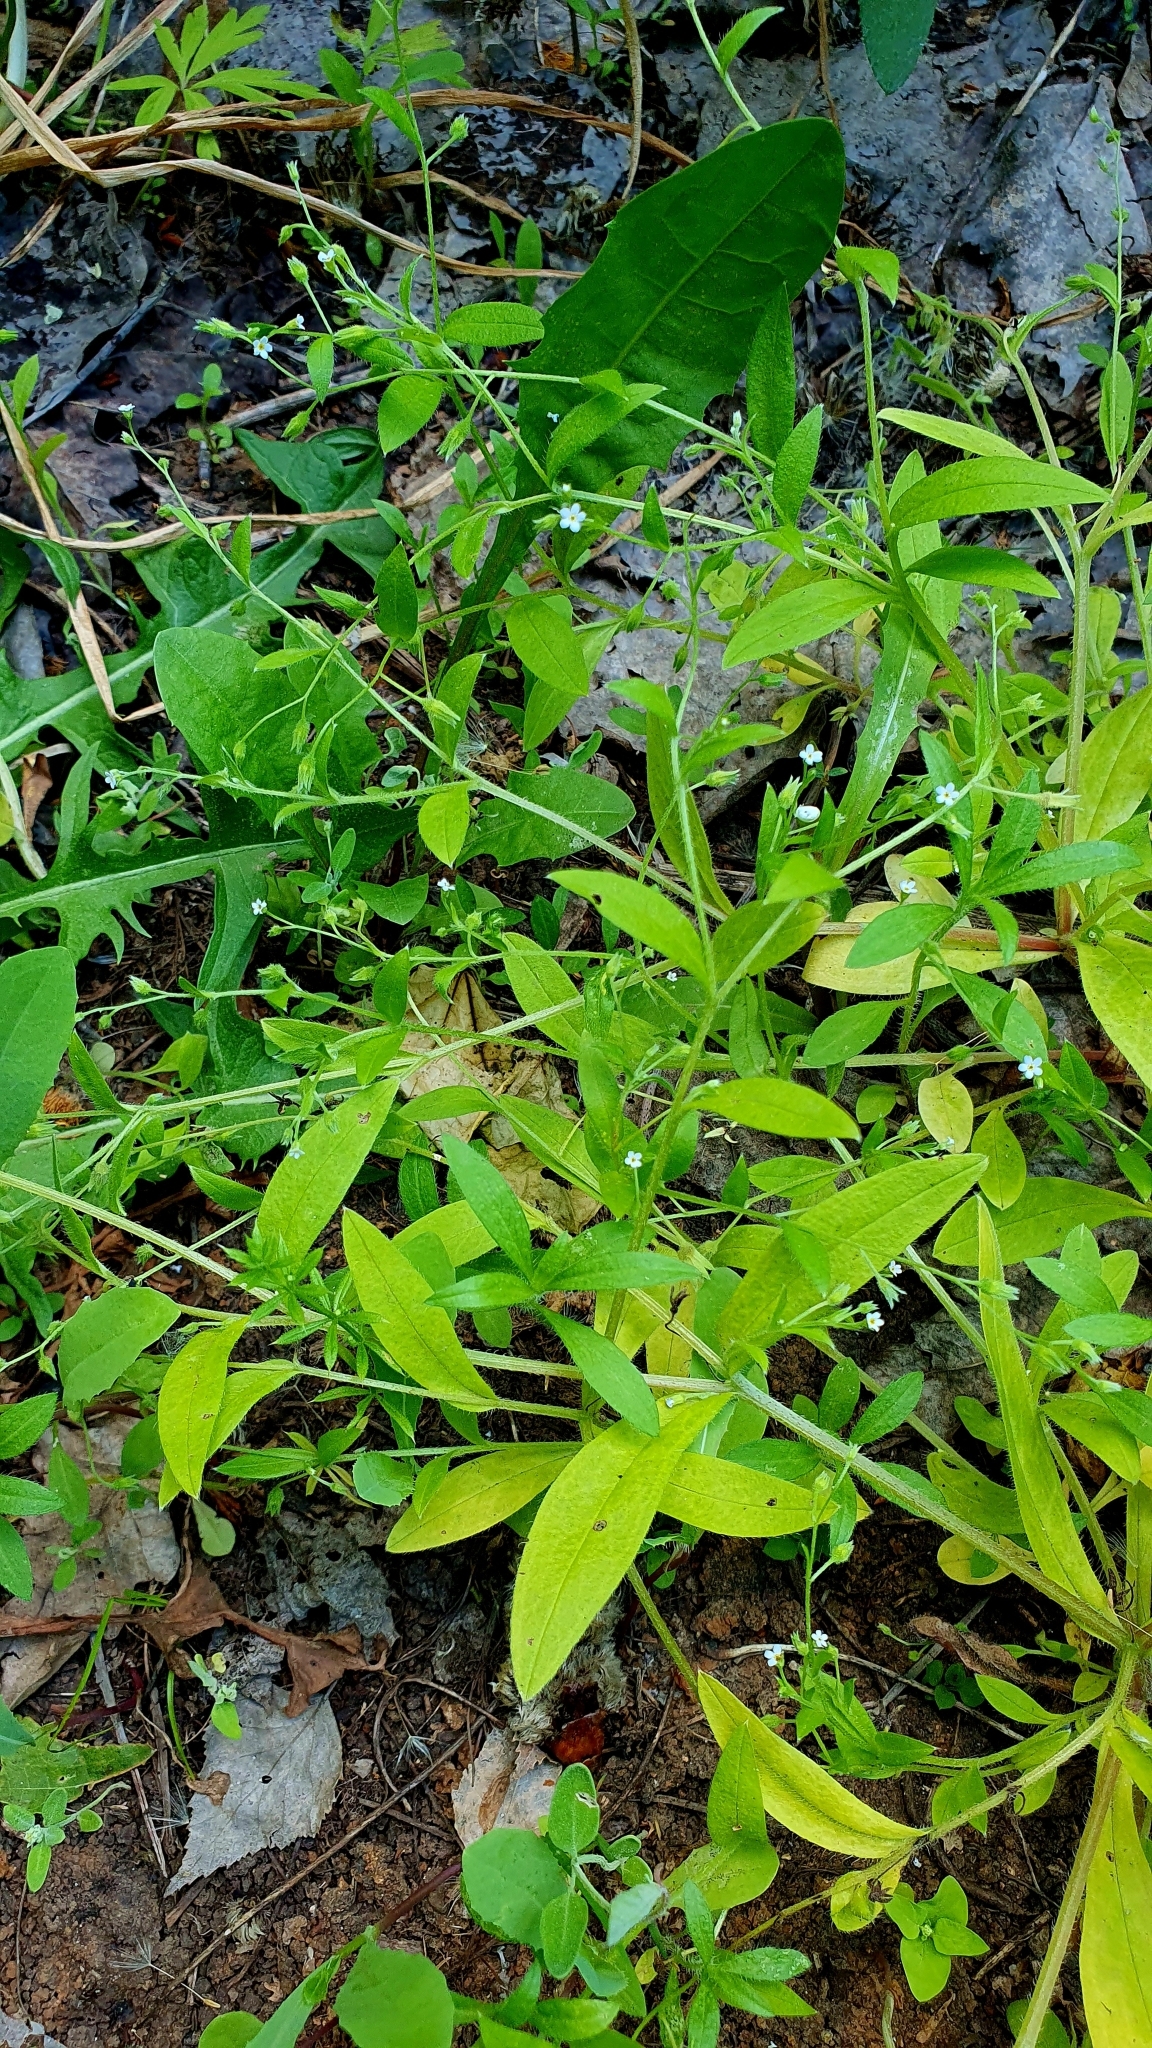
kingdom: Plantae
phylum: Tracheophyta
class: Magnoliopsida
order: Boraginales
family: Boraginaceae
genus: Myosotis
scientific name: Myosotis sparsiflora
